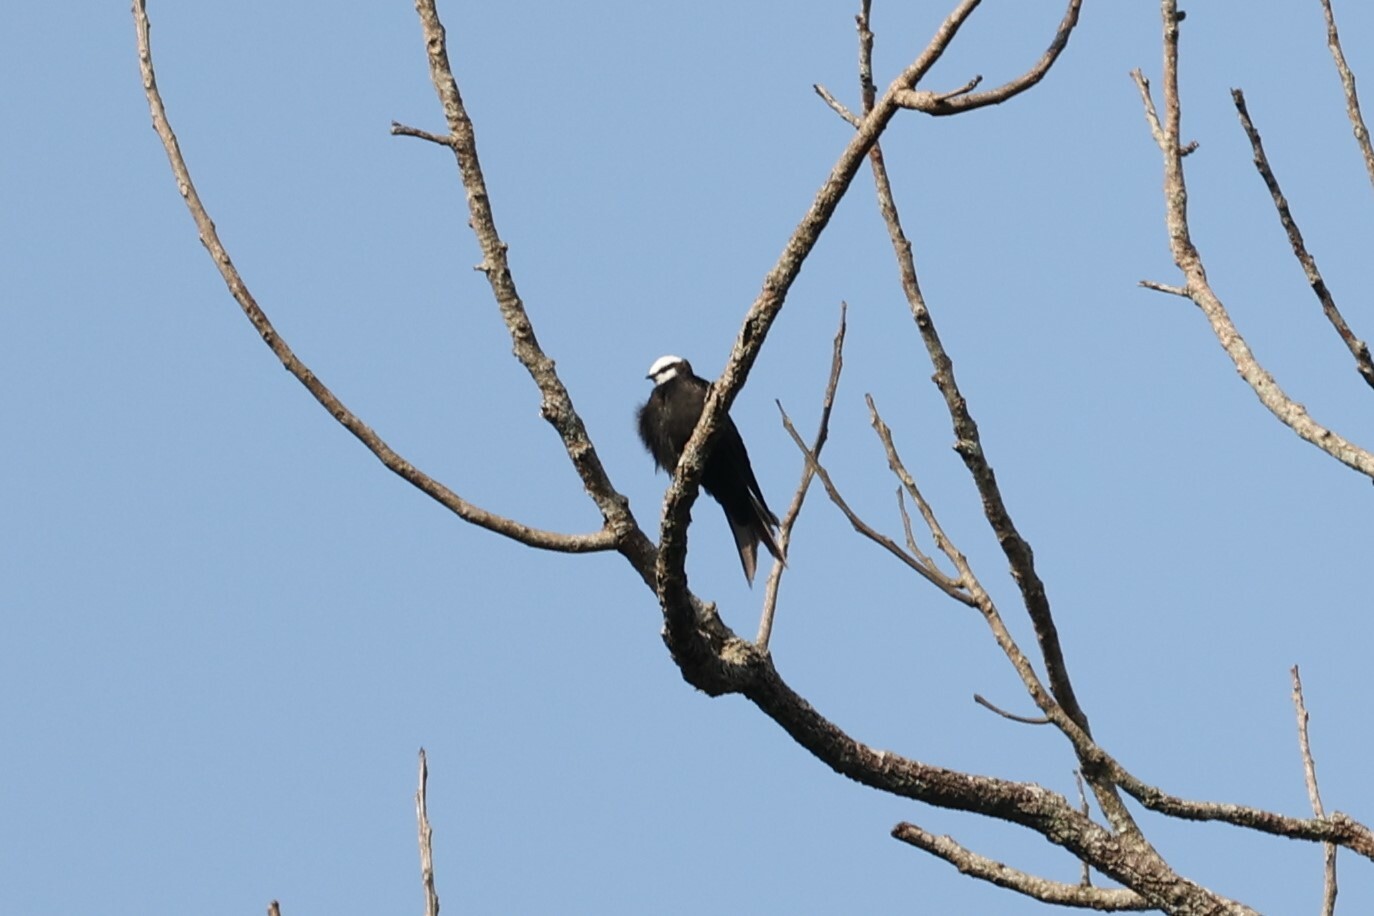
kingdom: Animalia
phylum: Chordata
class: Aves
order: Passeriformes
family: Hirundinidae
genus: Psalidoprocne
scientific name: Psalidoprocne albiceps
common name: White-headed saw-wing
